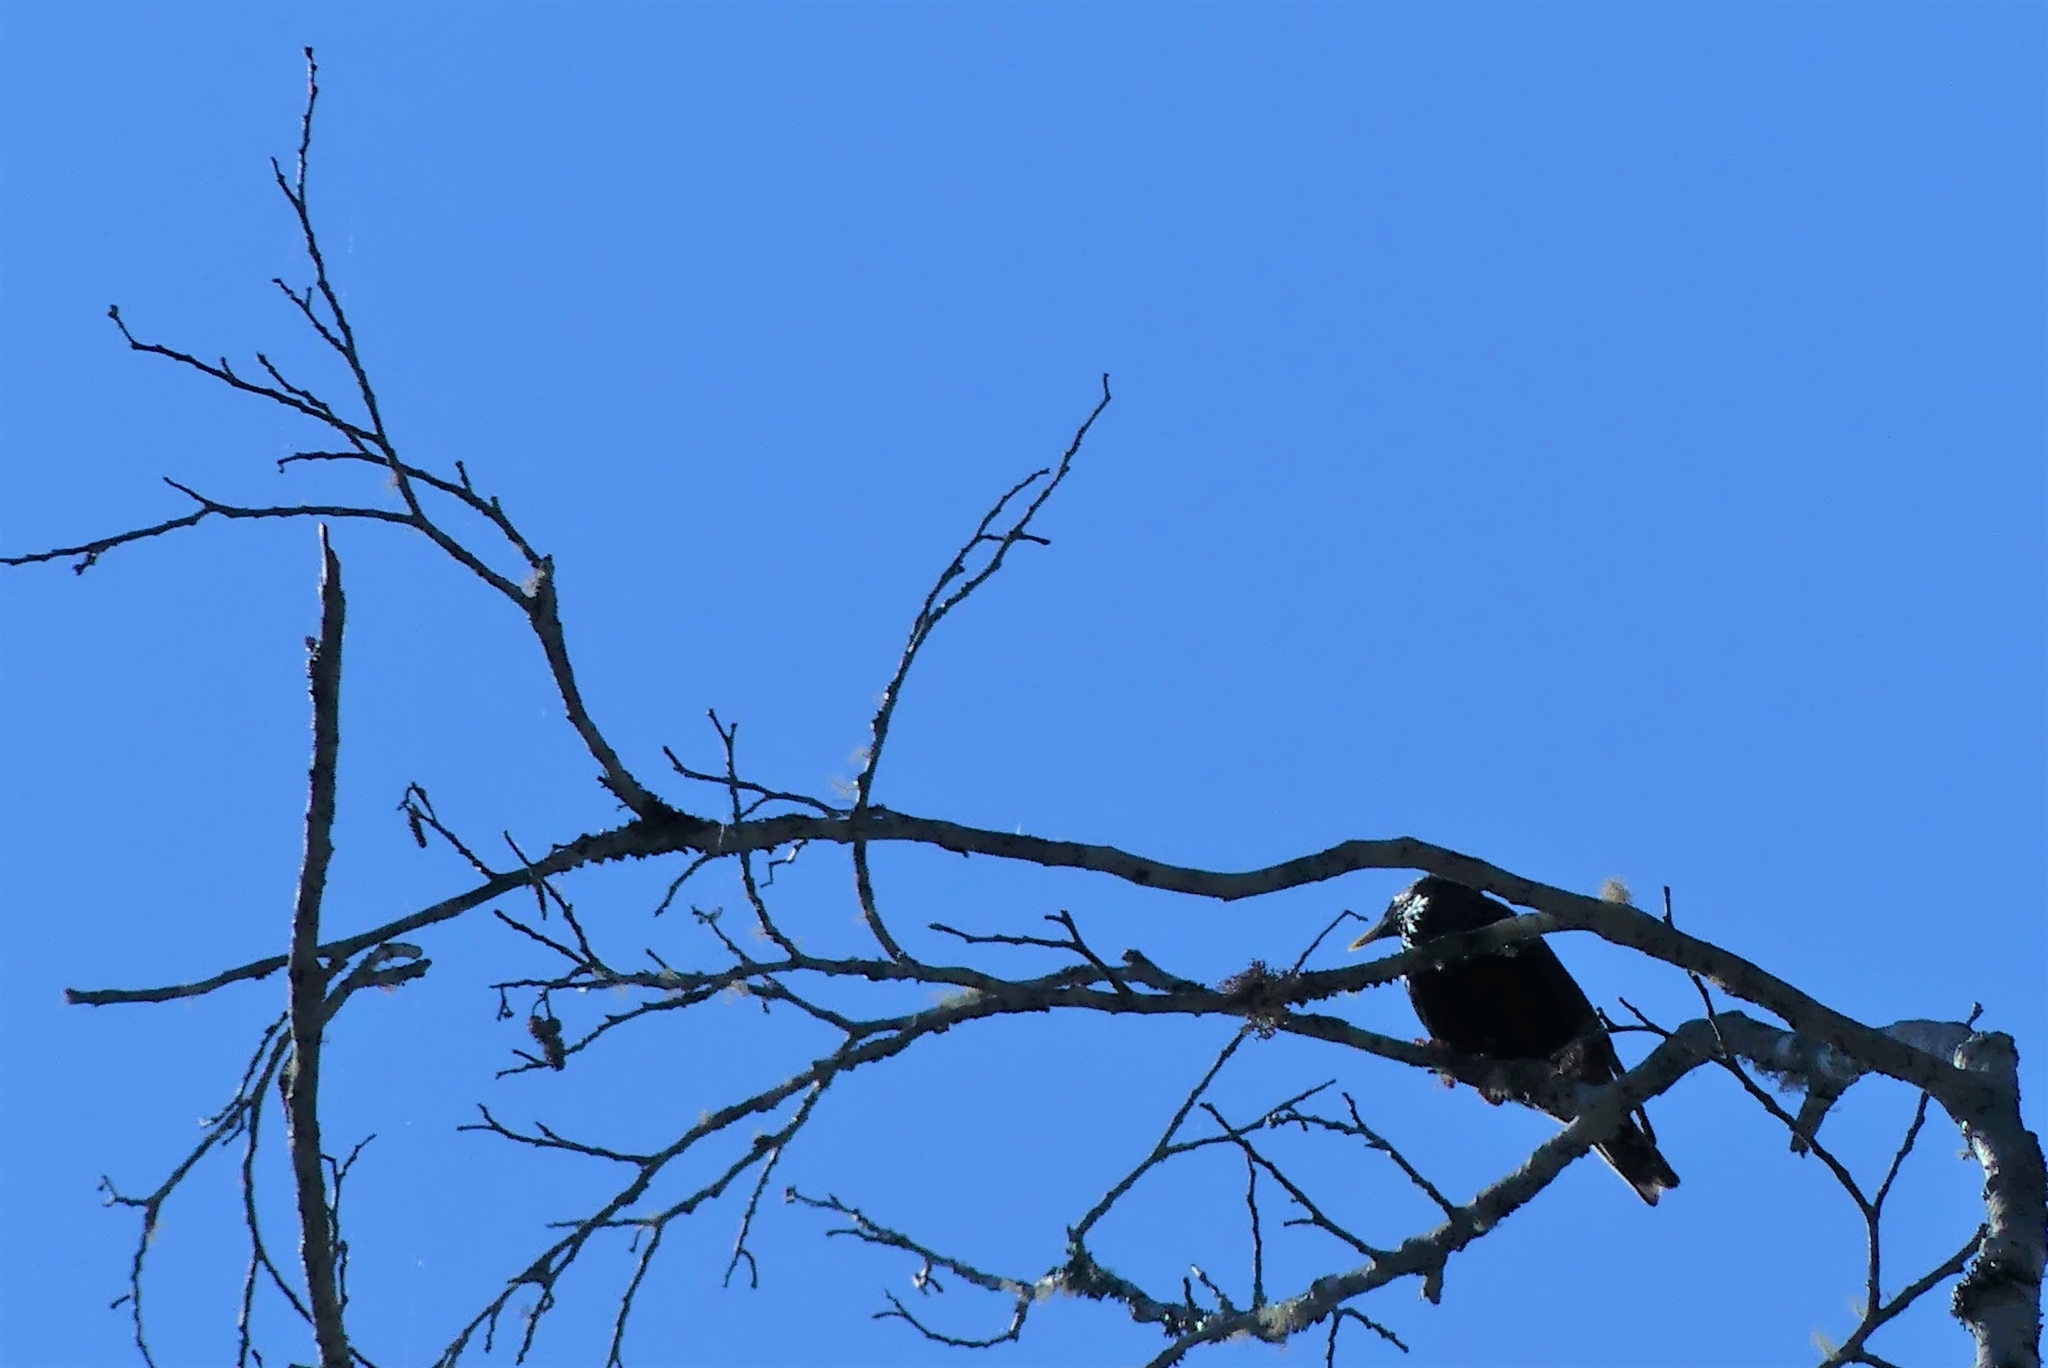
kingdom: Animalia
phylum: Chordata
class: Aves
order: Passeriformes
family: Sturnidae
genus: Sturnus
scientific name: Sturnus vulgaris
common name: Common starling
